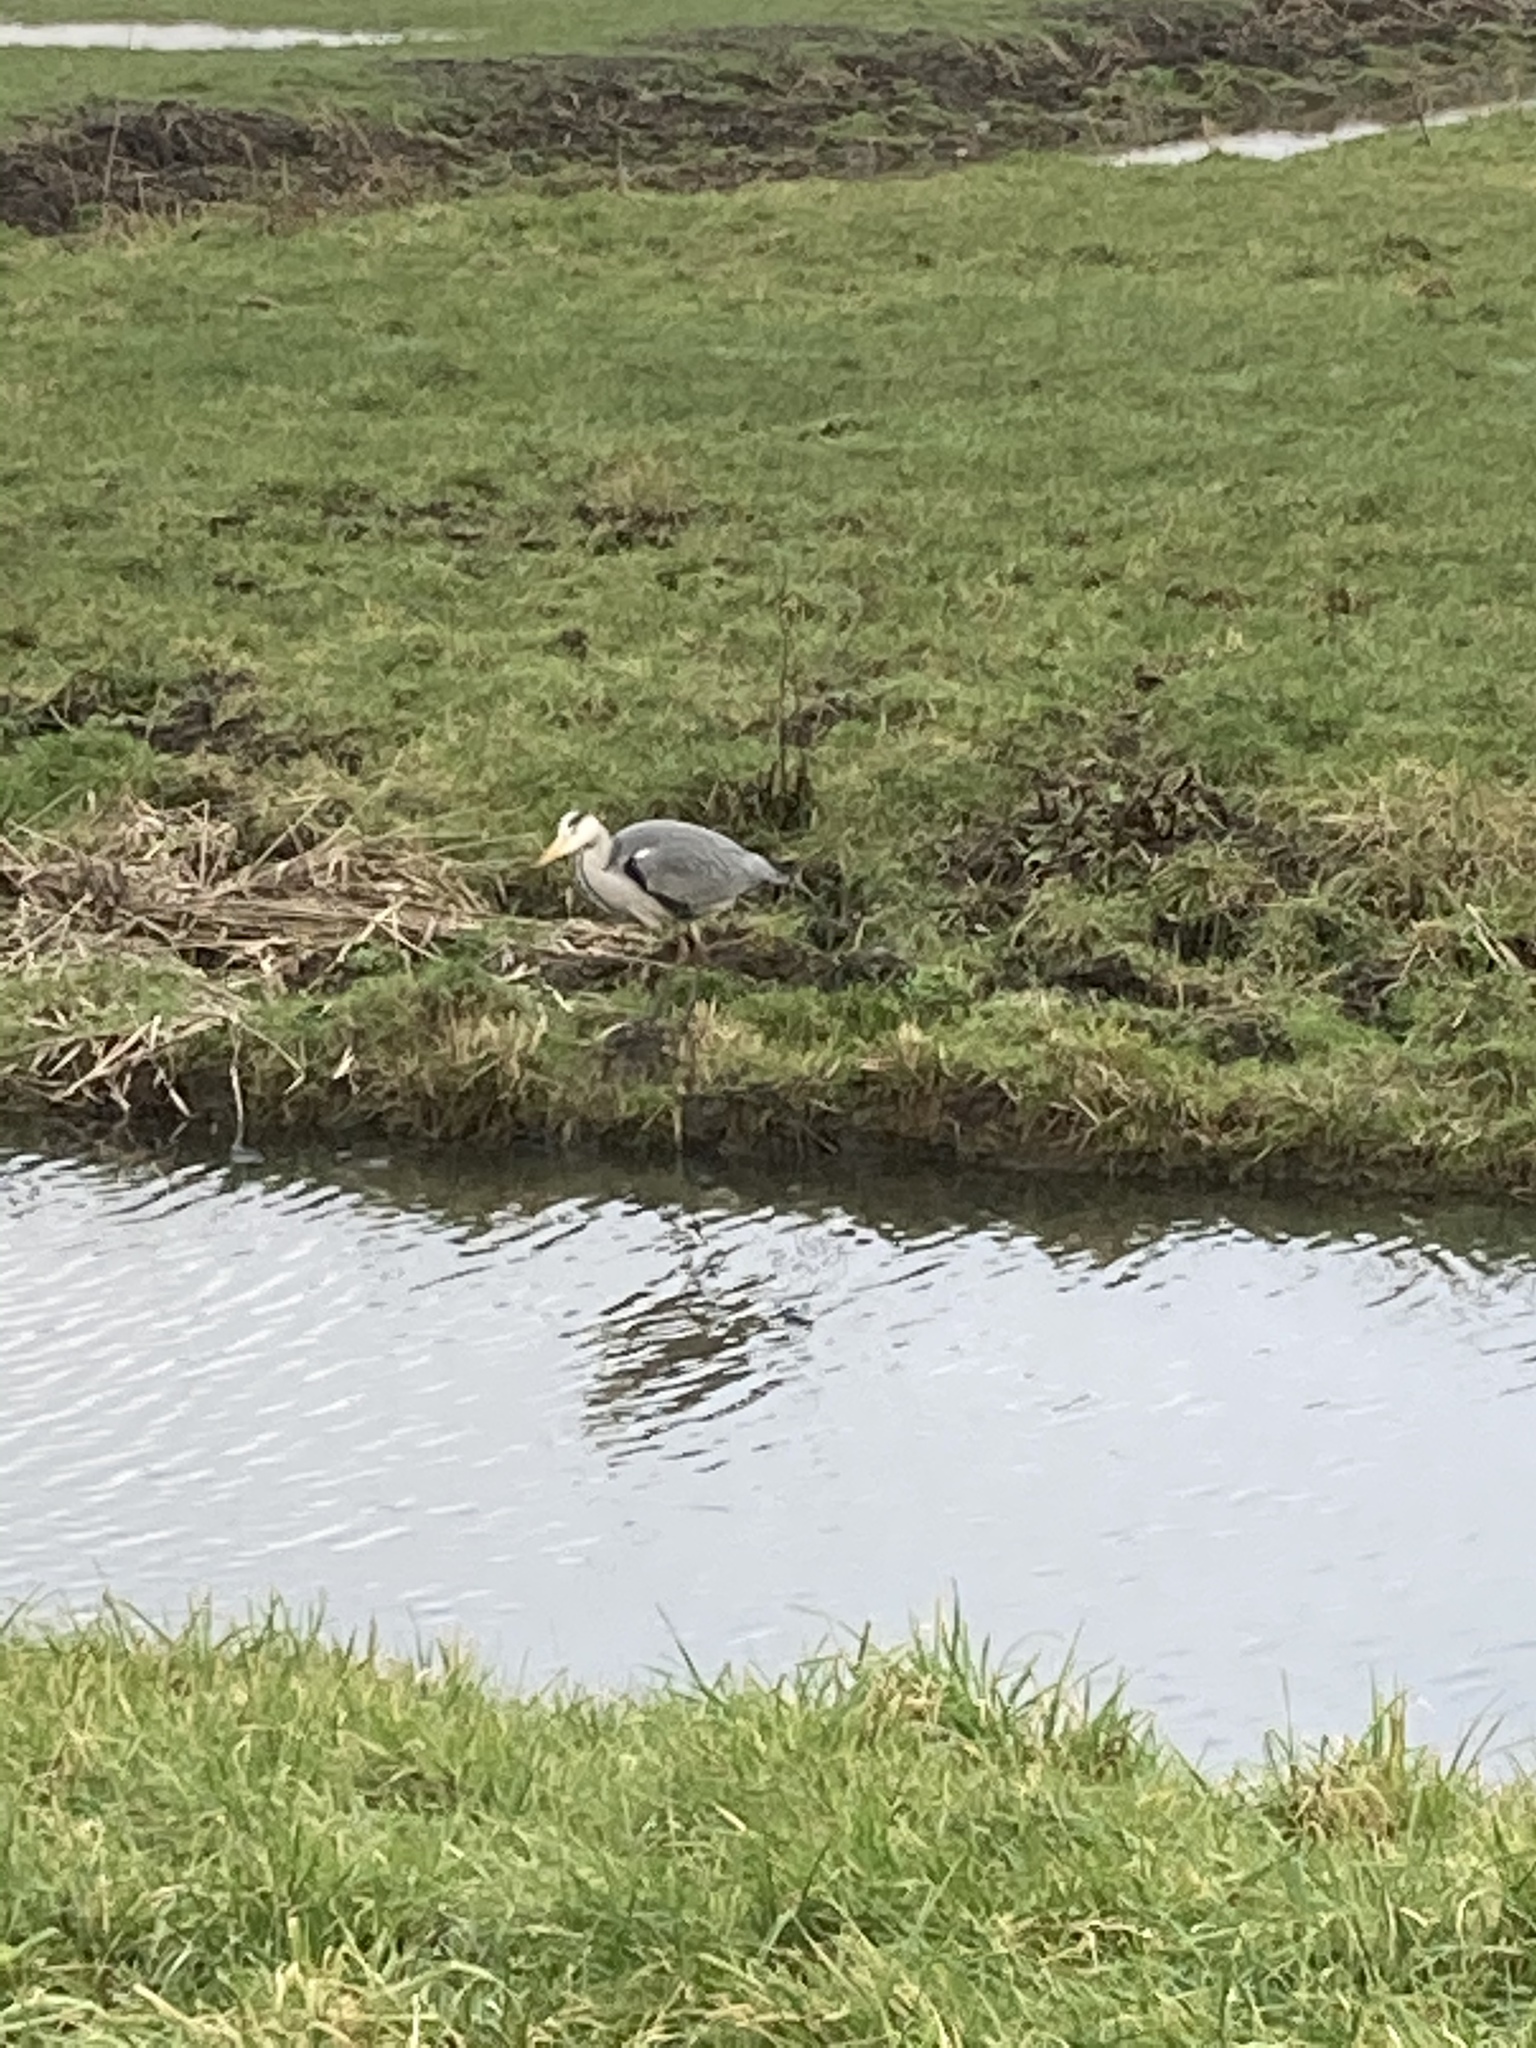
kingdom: Animalia
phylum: Chordata
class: Aves
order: Pelecaniformes
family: Ardeidae
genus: Ardea
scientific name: Ardea cinerea
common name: Grey heron
